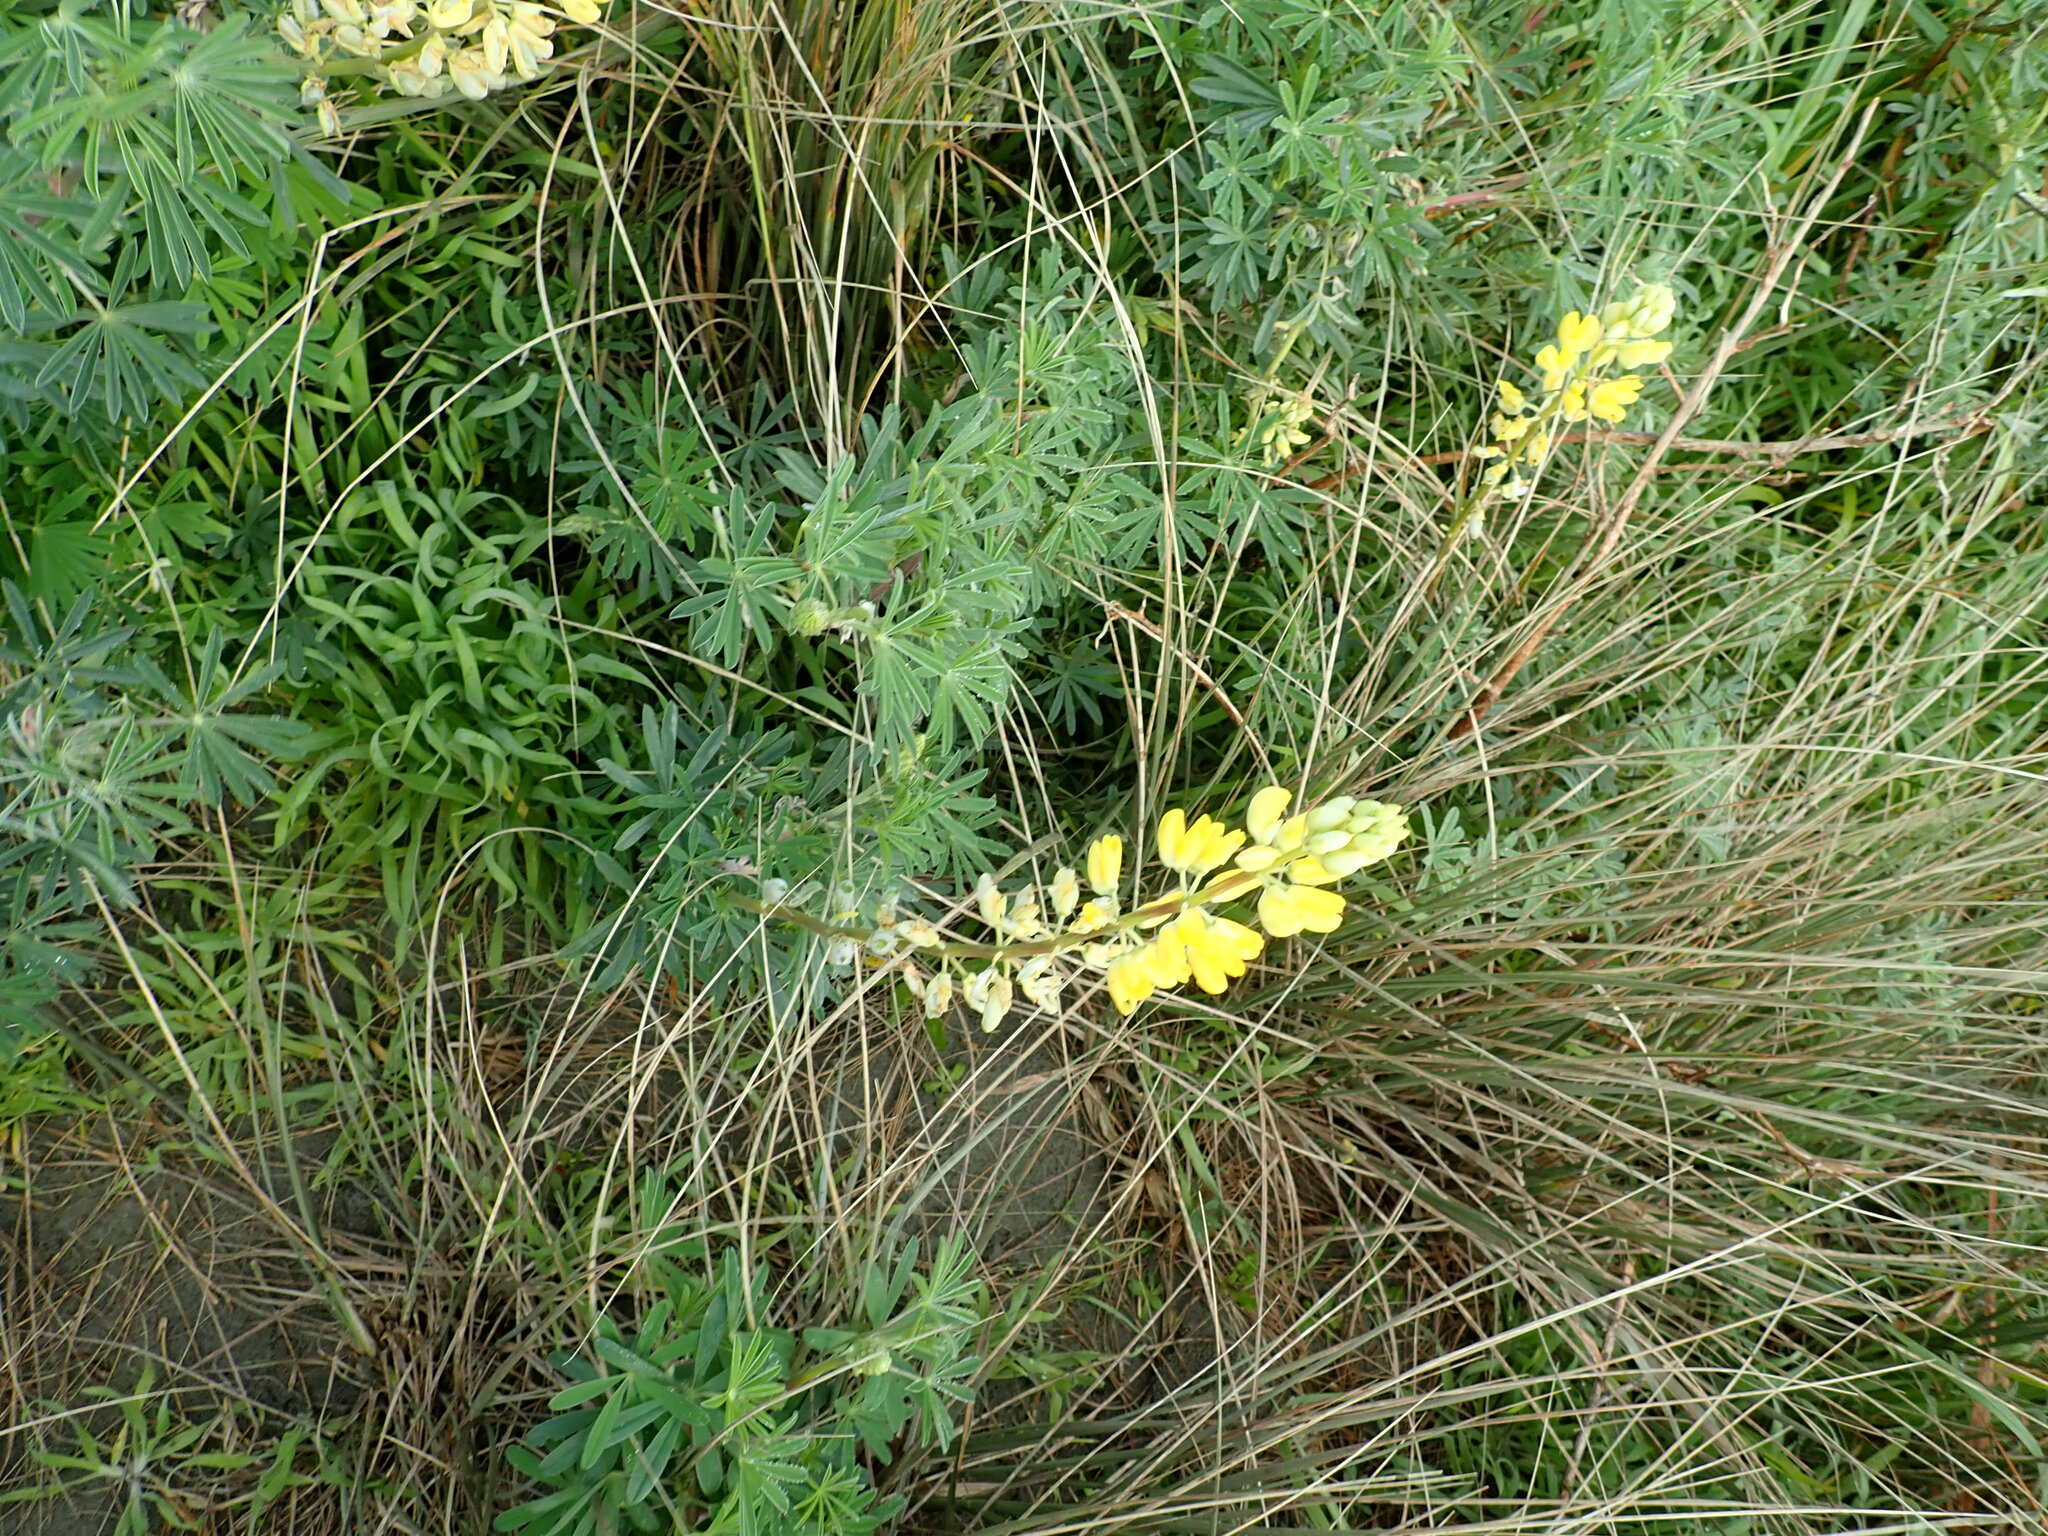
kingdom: Plantae
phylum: Tracheophyta
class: Magnoliopsida
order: Fabales
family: Fabaceae
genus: Lupinus
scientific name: Lupinus arboreus
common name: Yellow bush lupine
